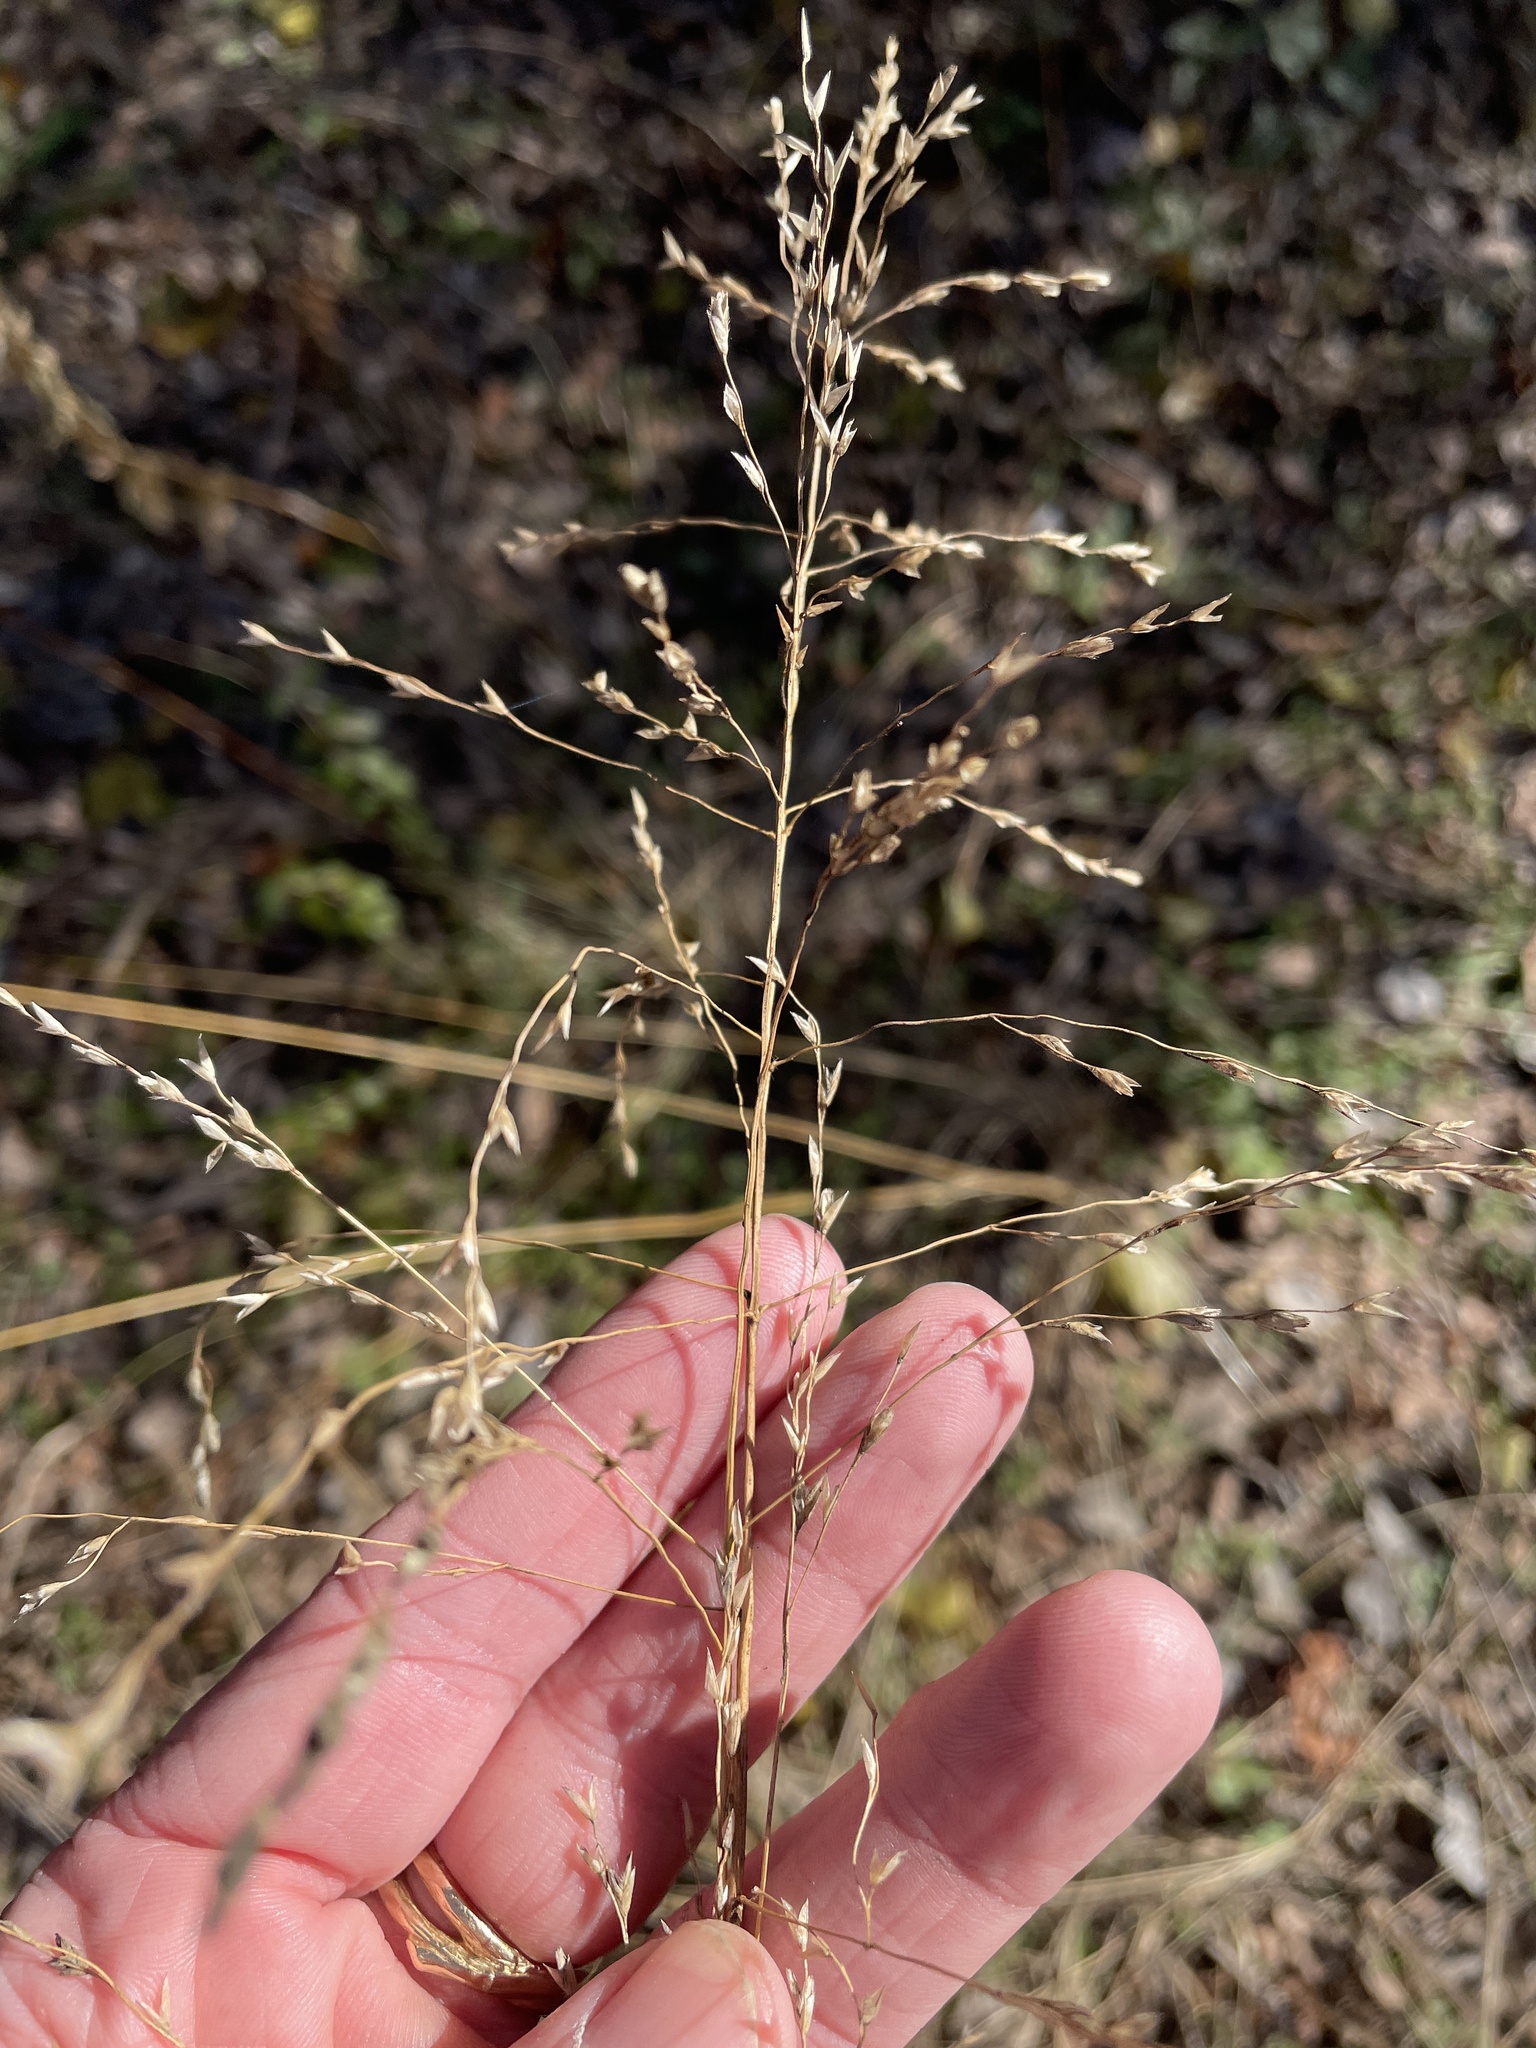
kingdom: Plantae
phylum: Tracheophyta
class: Liliopsida
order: Poales
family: Poaceae
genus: Tridens
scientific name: Tridens flavus
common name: Purpletop
